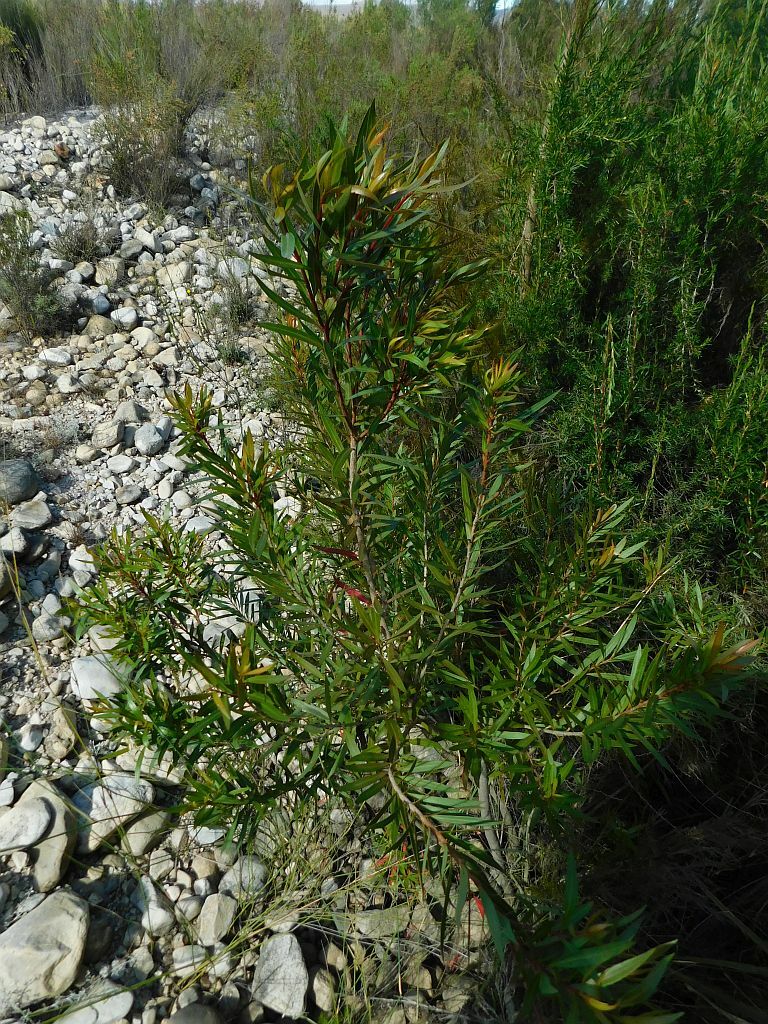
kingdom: Plantae
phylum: Tracheophyta
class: Magnoliopsida
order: Myrtales
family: Myrtaceae
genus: Callistemon
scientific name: Callistemon lanceolatus
